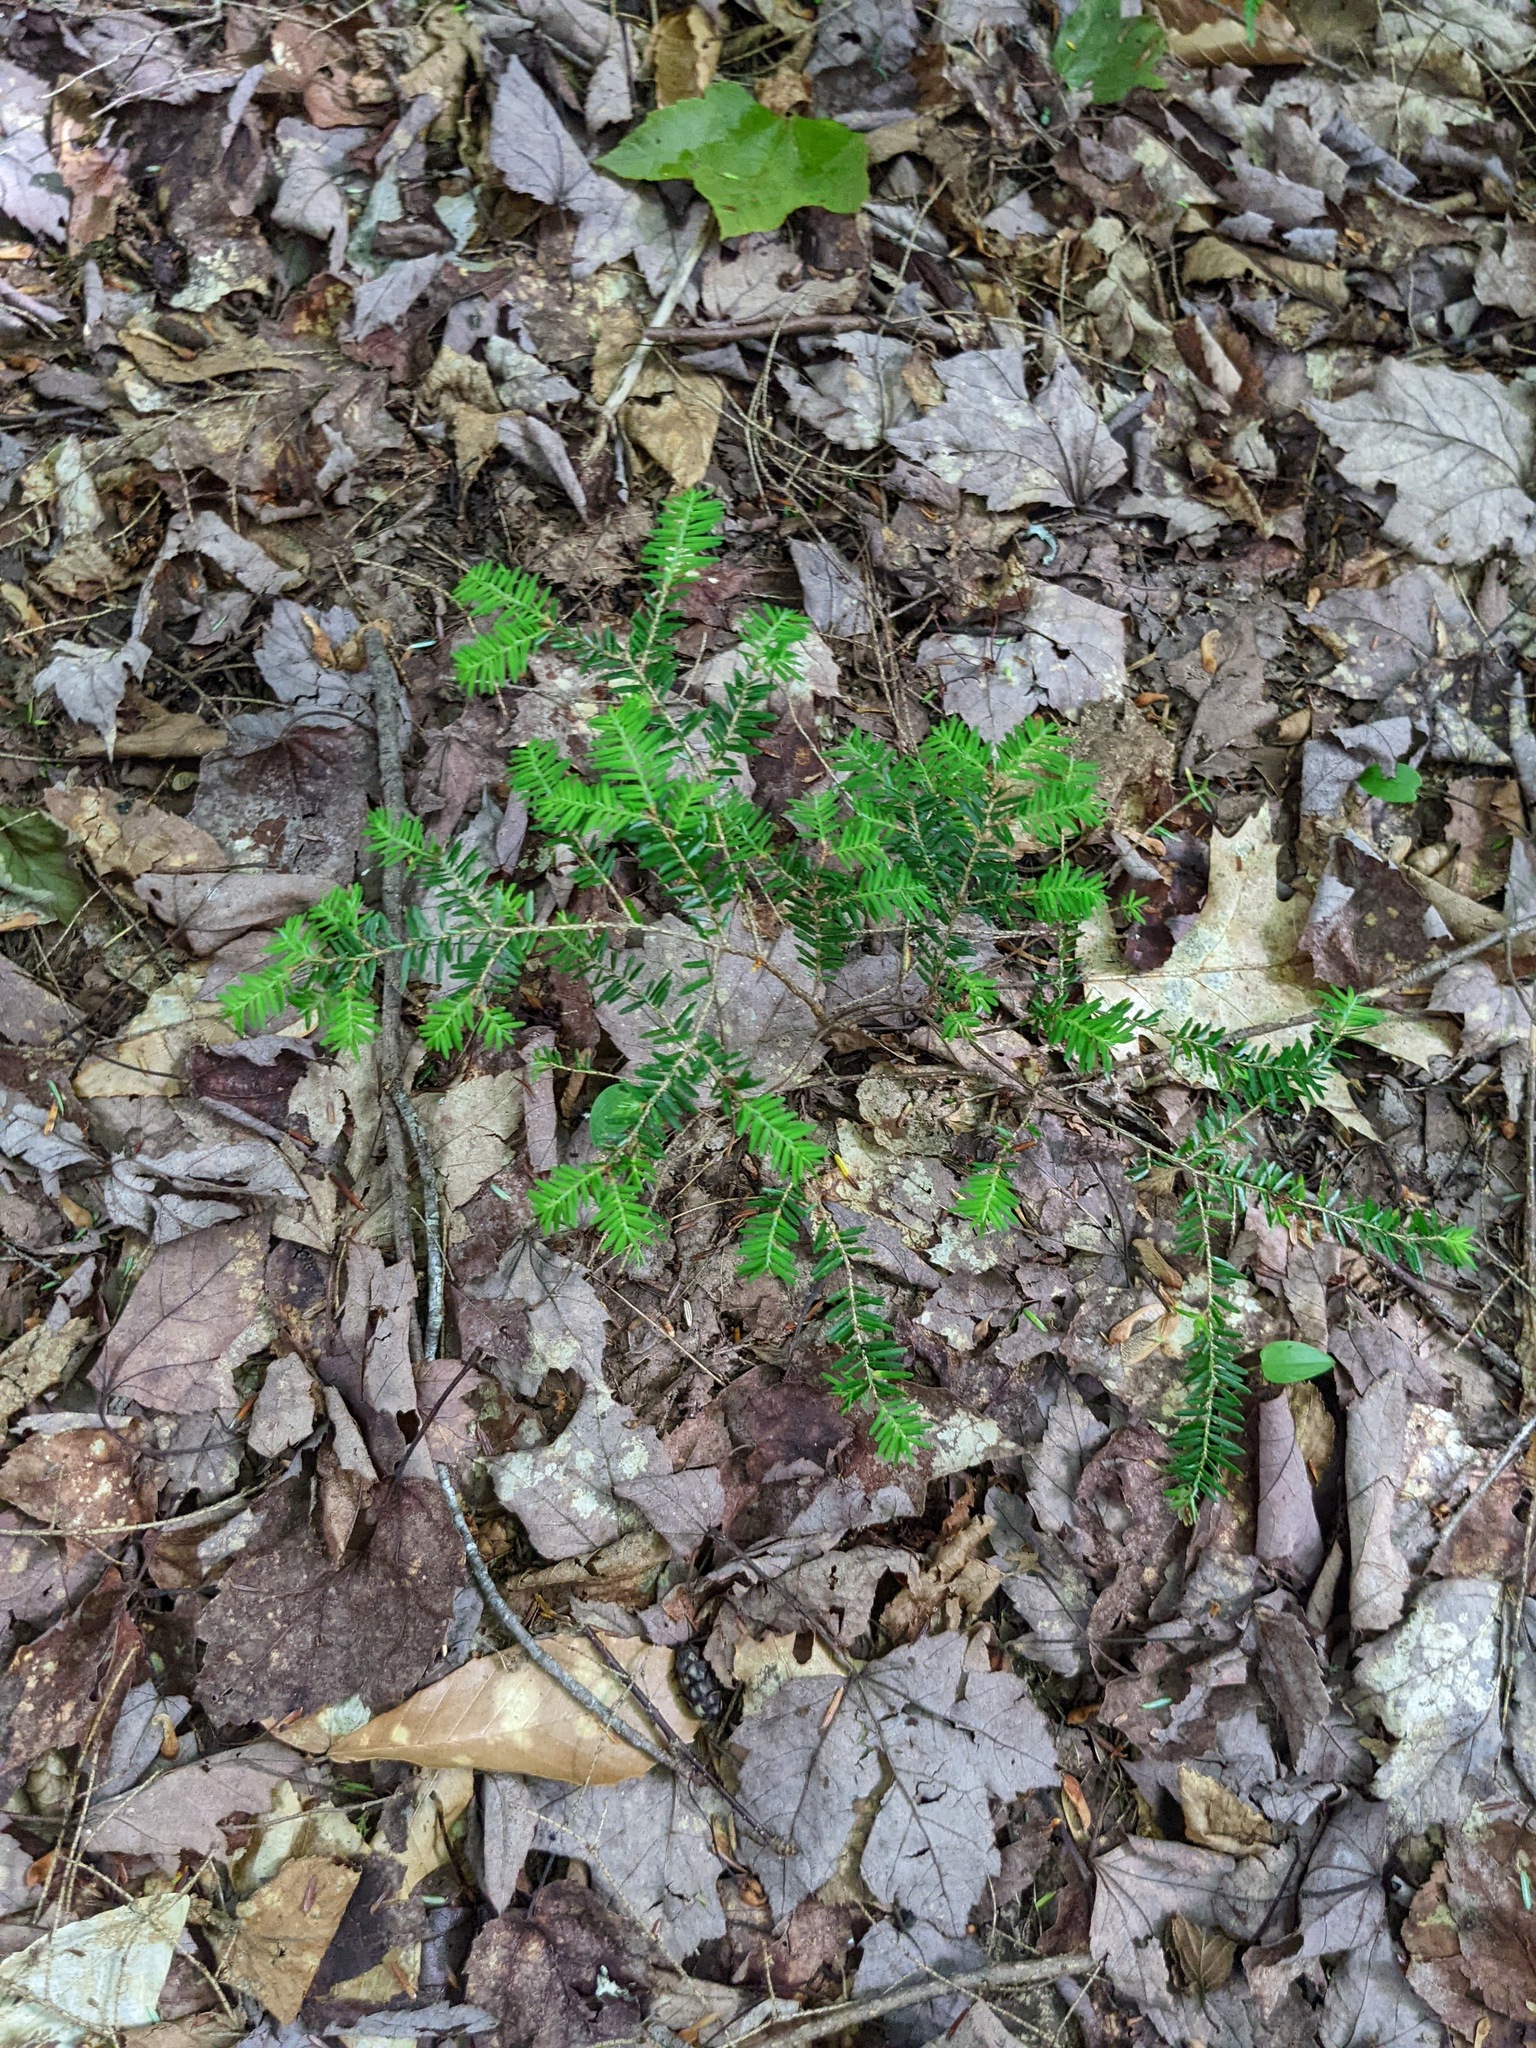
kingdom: Plantae
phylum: Tracheophyta
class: Pinopsida
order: Pinales
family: Pinaceae
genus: Tsuga
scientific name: Tsuga canadensis
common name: Eastern hemlock
